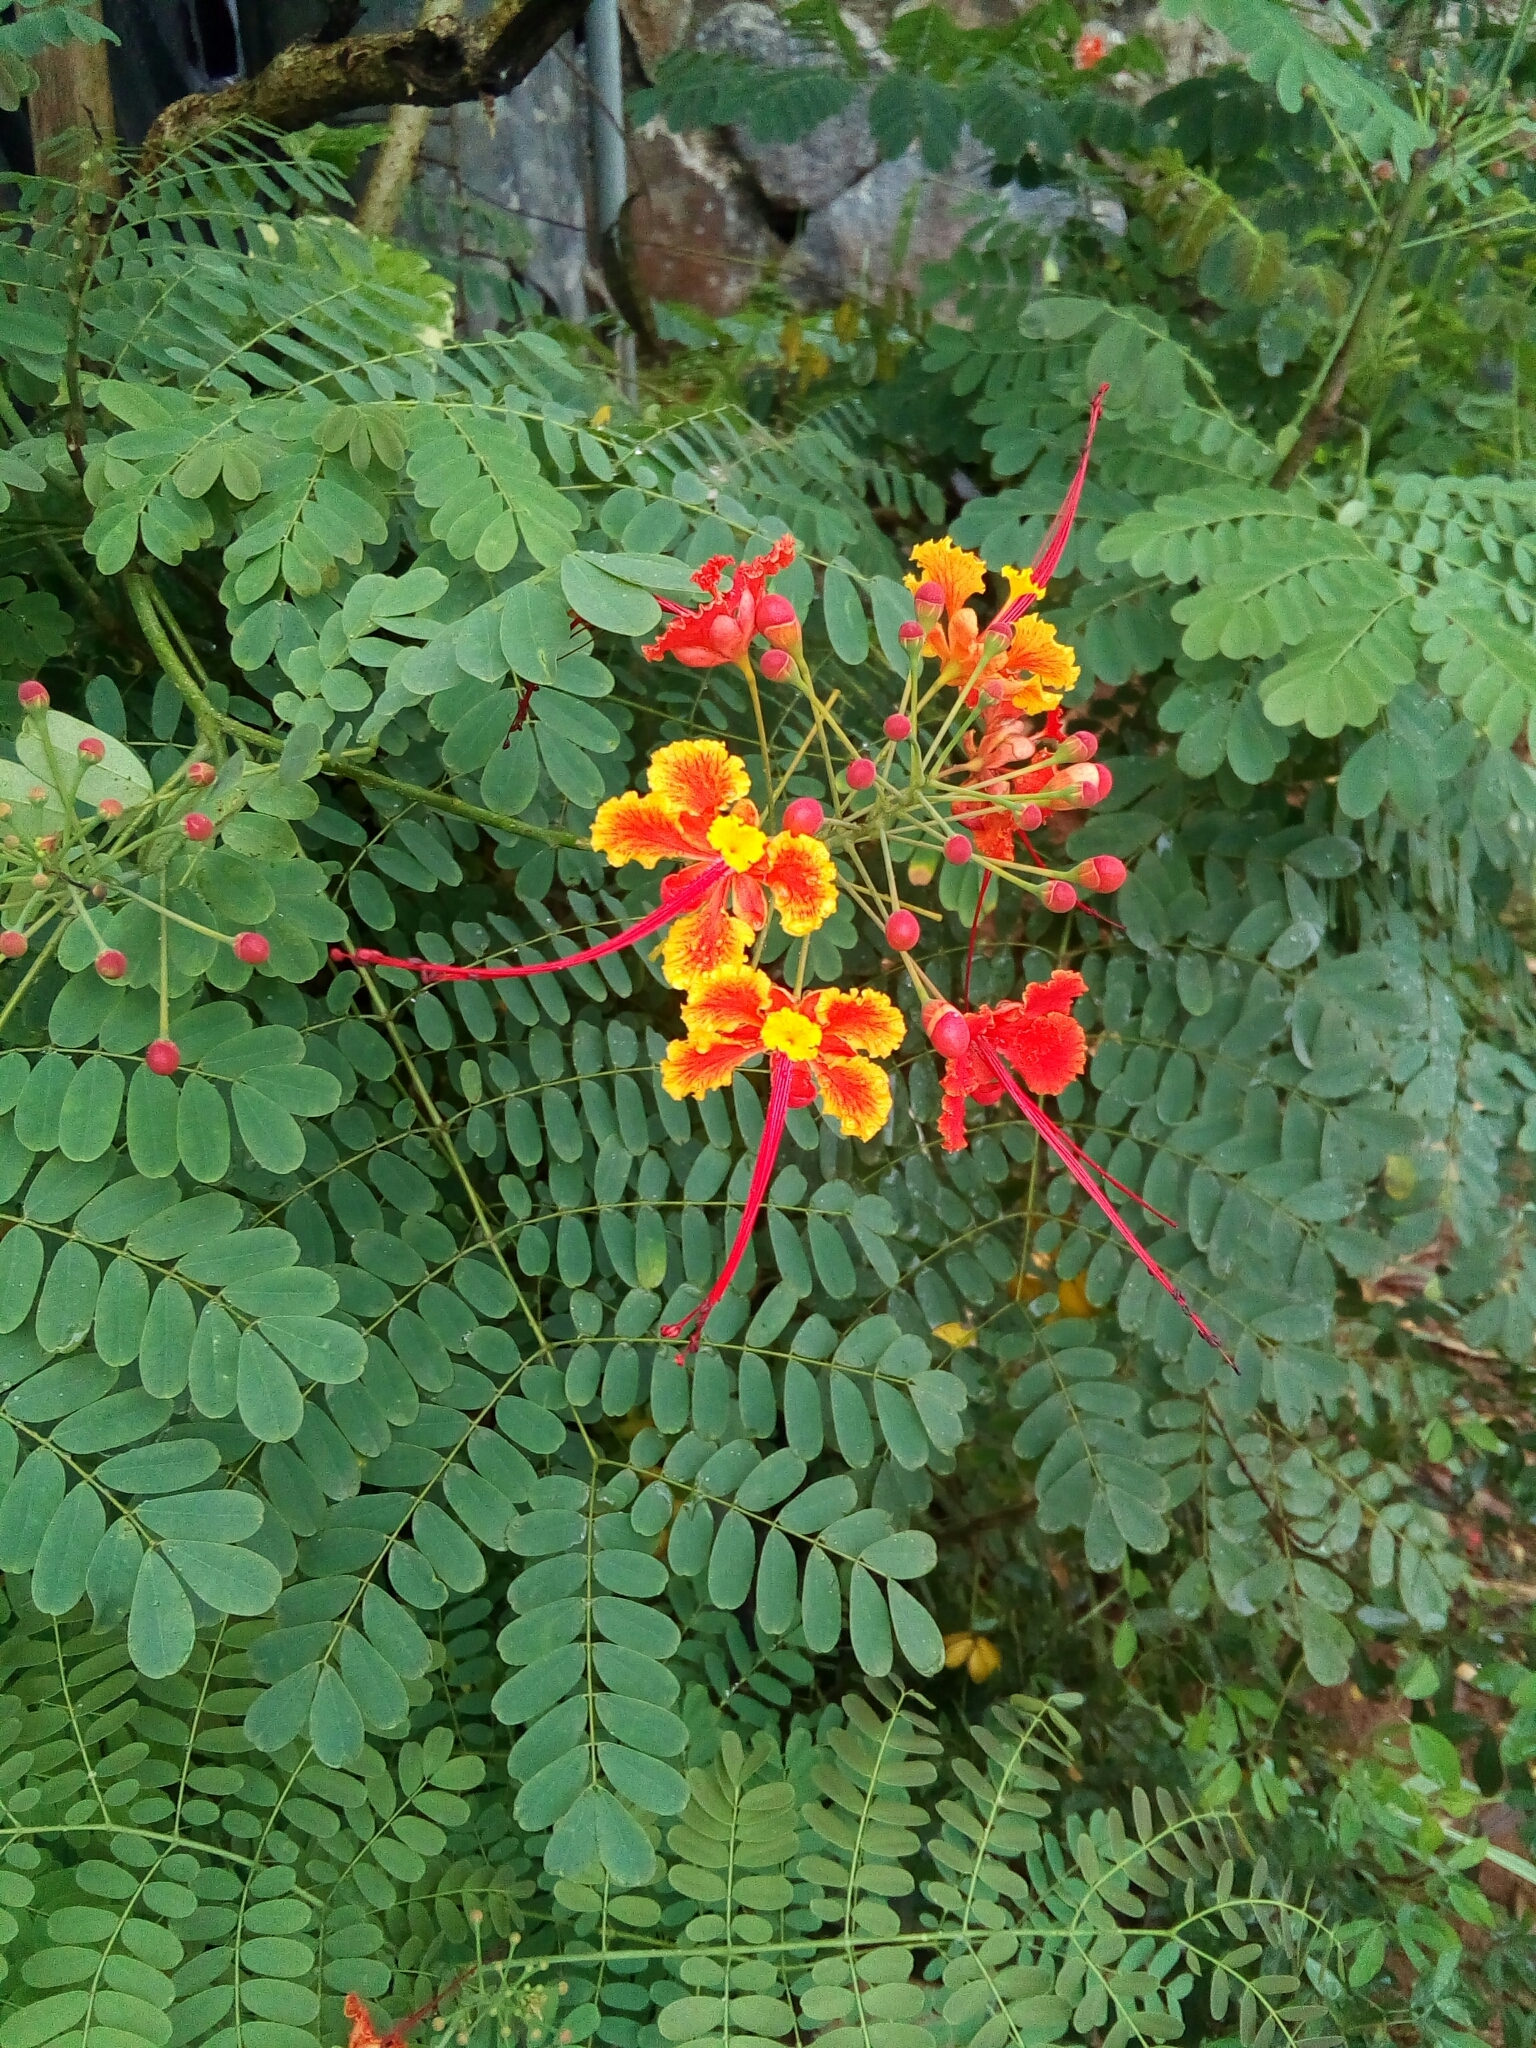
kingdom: Plantae
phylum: Tracheophyta
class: Magnoliopsida
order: Fabales
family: Fabaceae
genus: Caesalpinia
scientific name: Caesalpinia pulcherrima
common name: Pride-of-barbados
